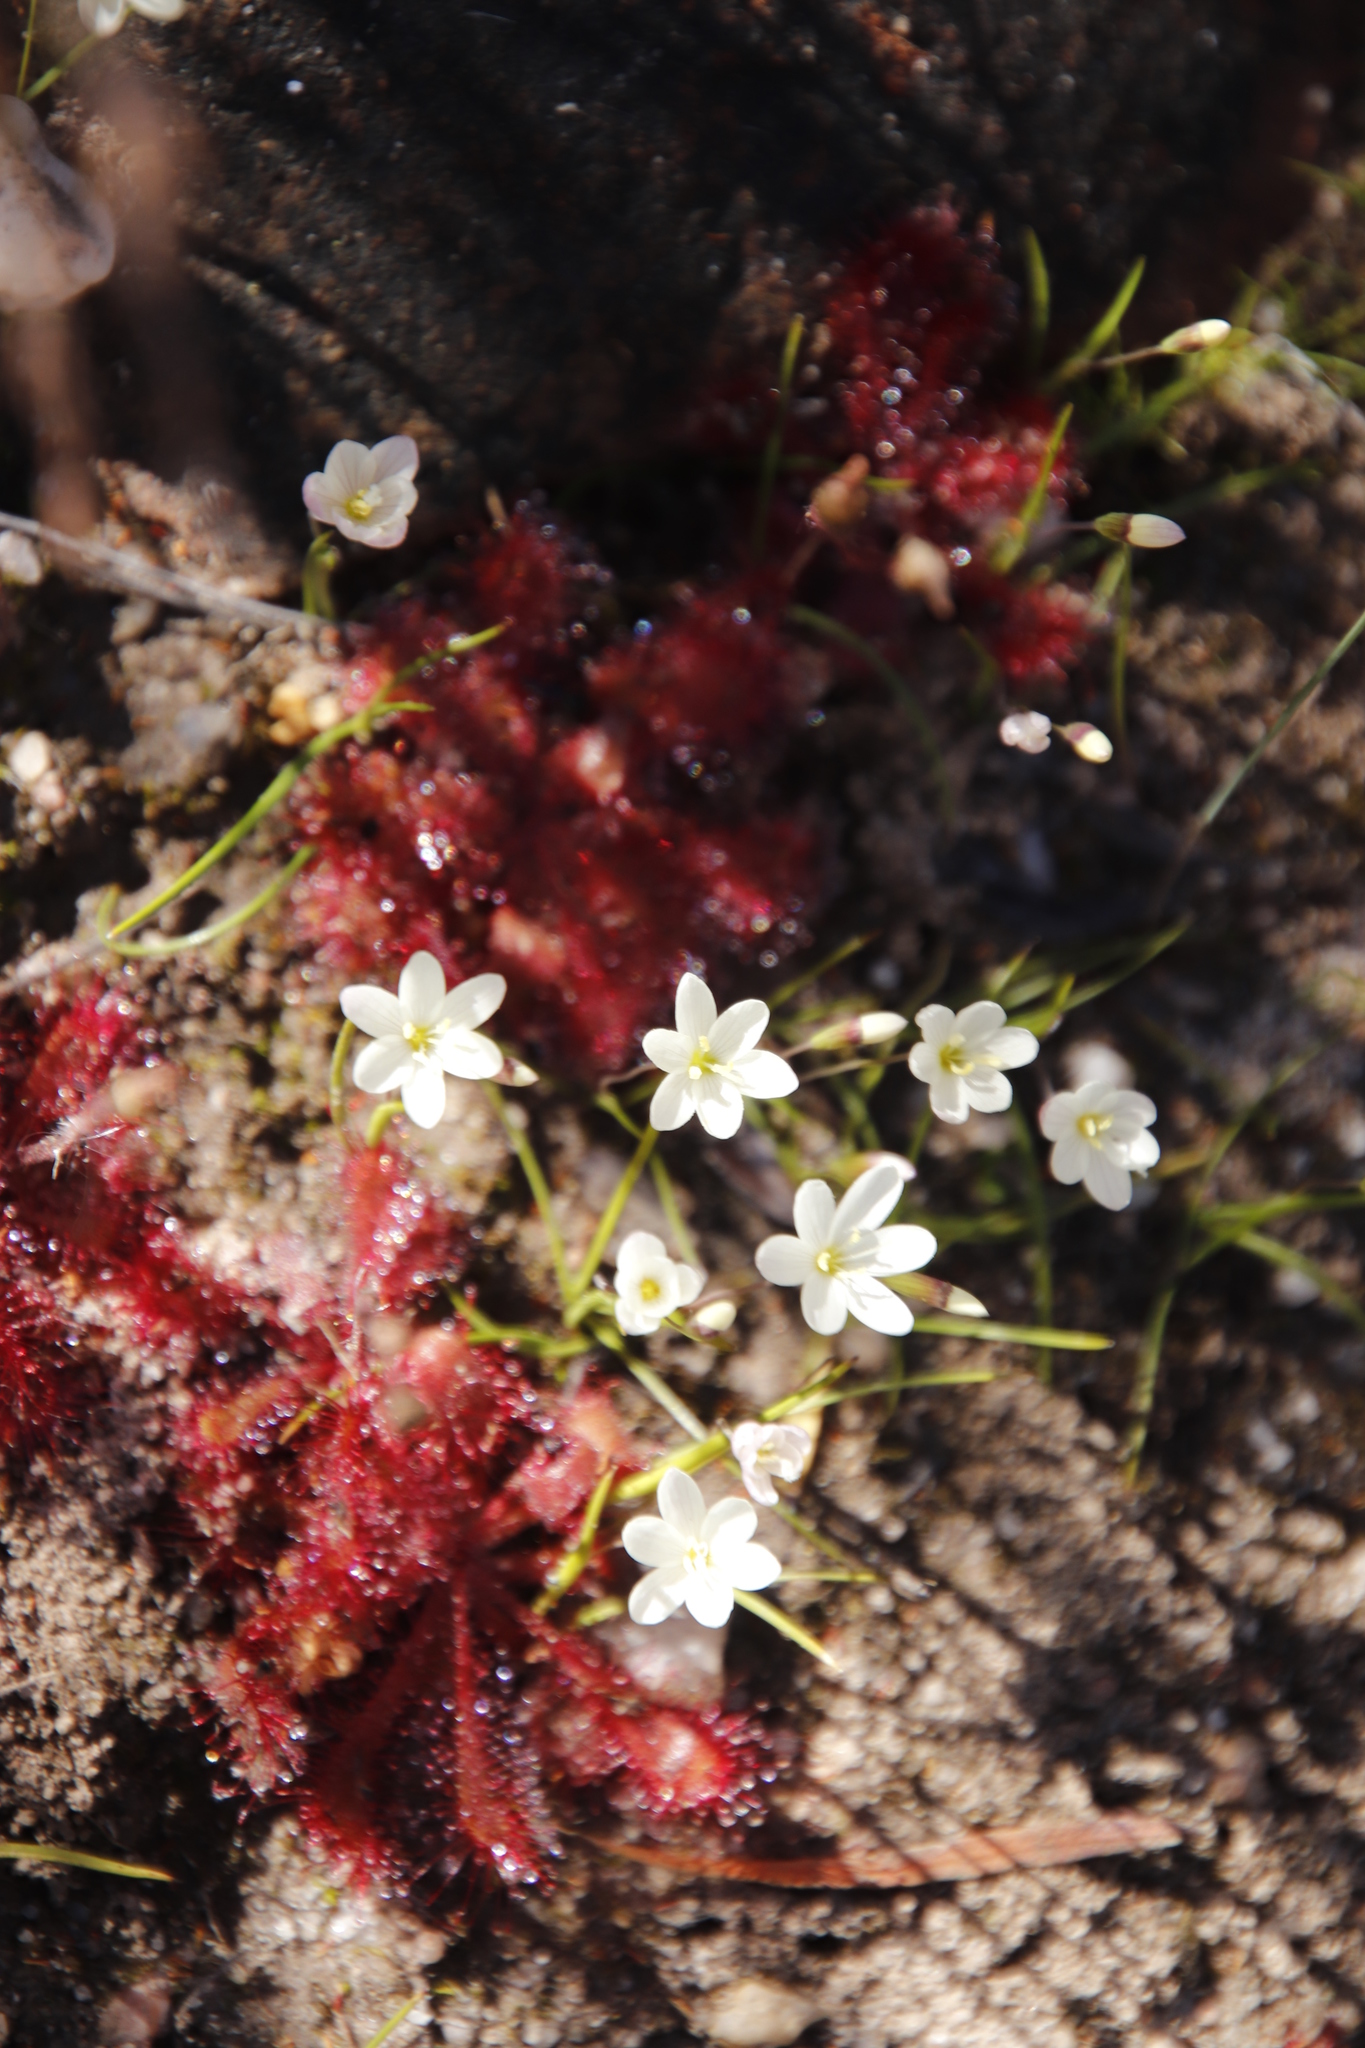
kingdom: Plantae
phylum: Tracheophyta
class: Liliopsida
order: Asparagales
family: Iridaceae
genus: Geissorhiza
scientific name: Geissorhiza minuta
